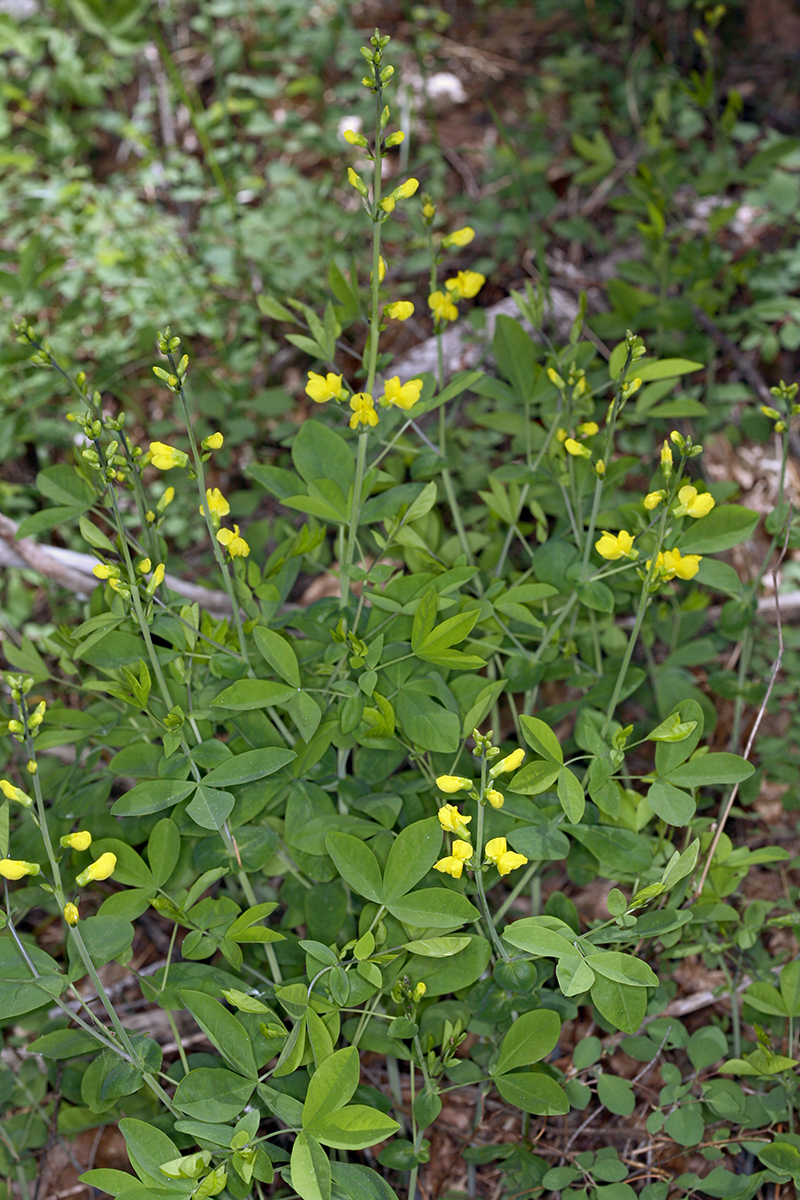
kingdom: Plantae
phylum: Tracheophyta
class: Magnoliopsida
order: Fabales
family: Fabaceae
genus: Thermopsis
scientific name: Thermopsis gracilis
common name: Slender golden-banner
